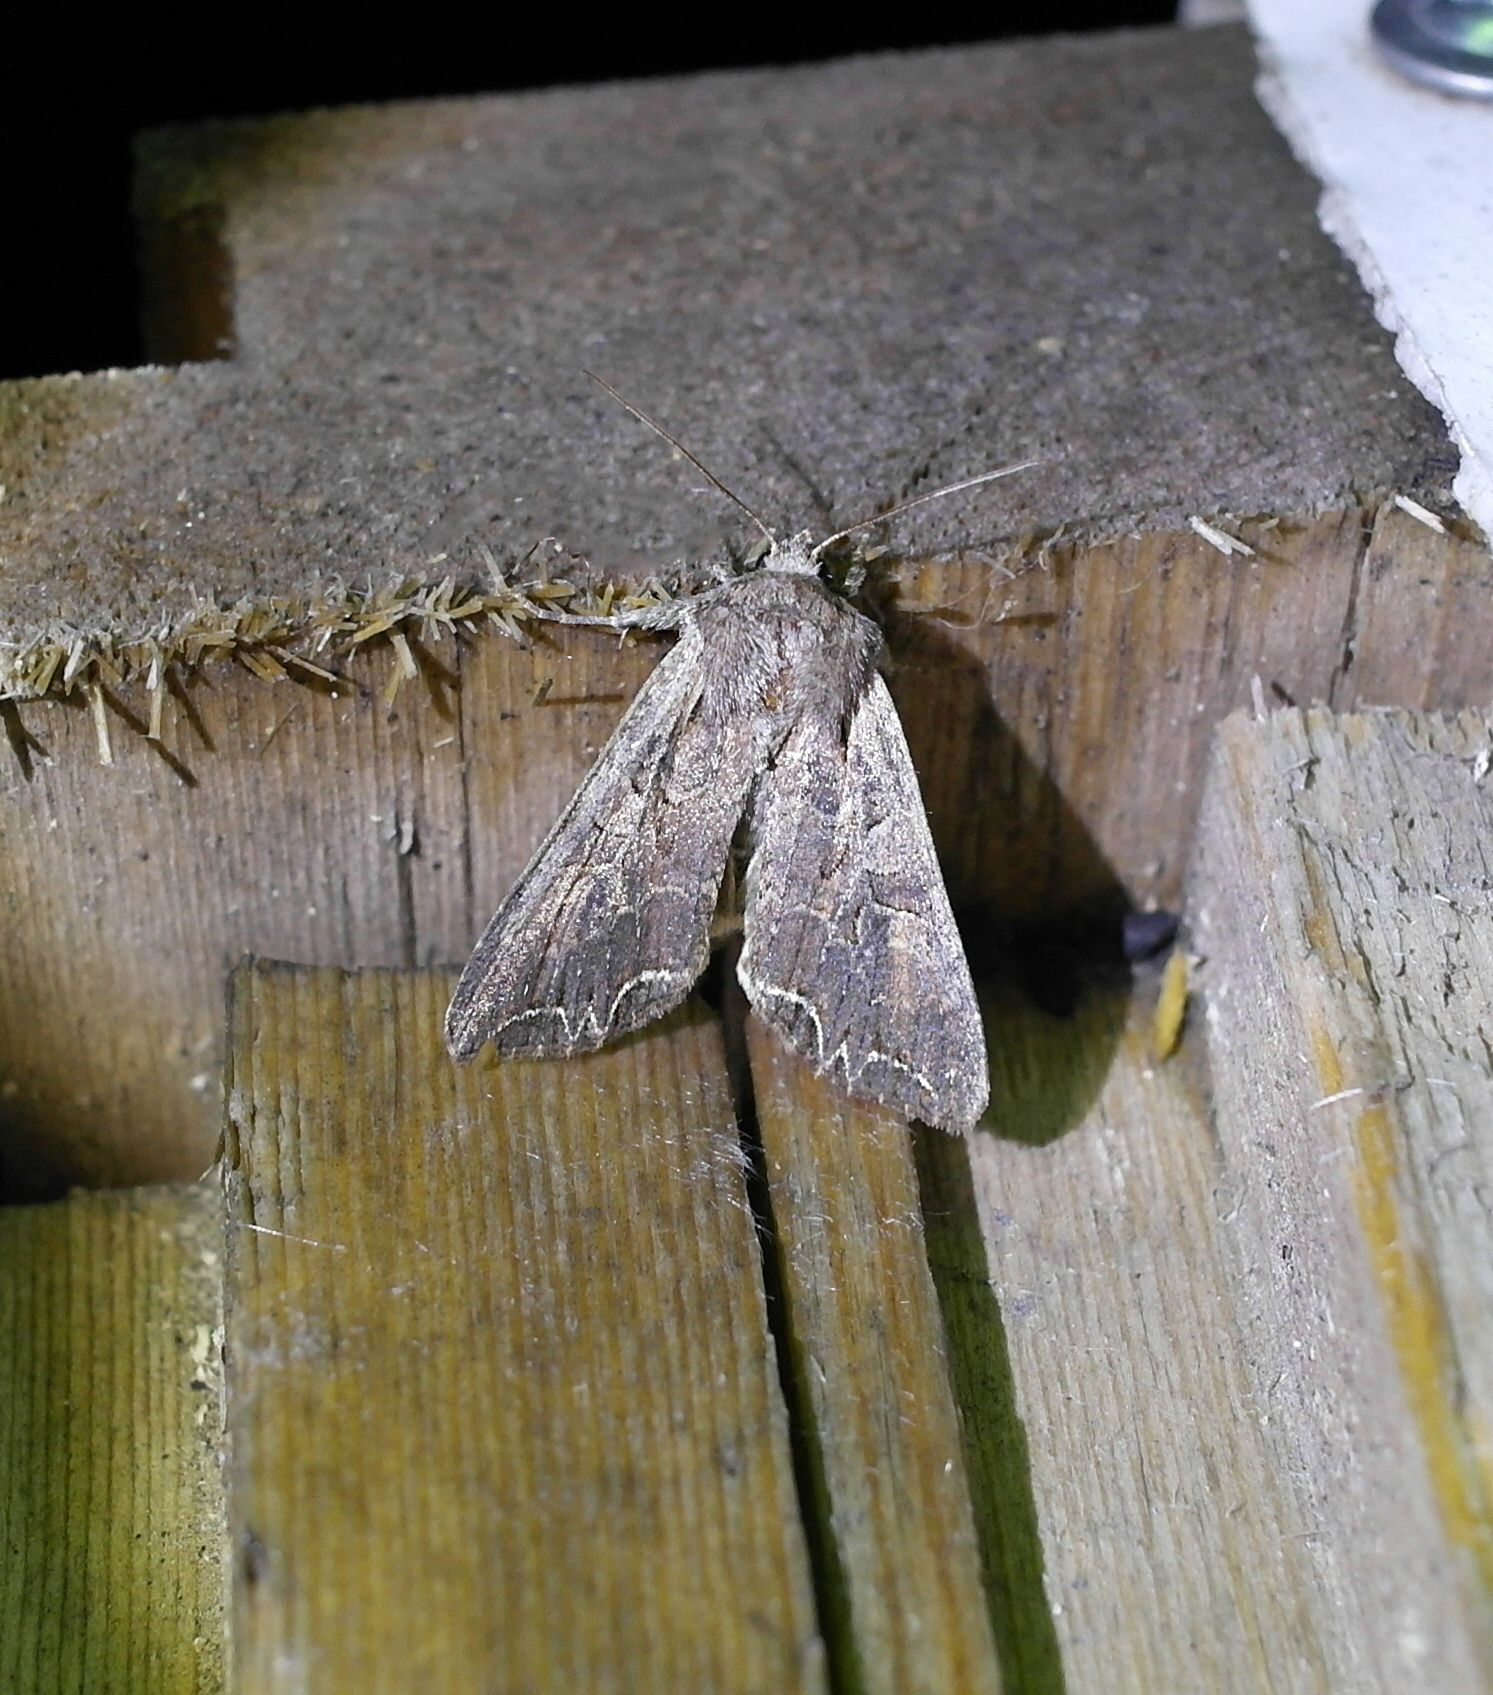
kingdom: Animalia
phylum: Arthropoda
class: Insecta
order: Lepidoptera
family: Noctuidae
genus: Lacanobia
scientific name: Lacanobia suasa
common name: Dog's tooth
